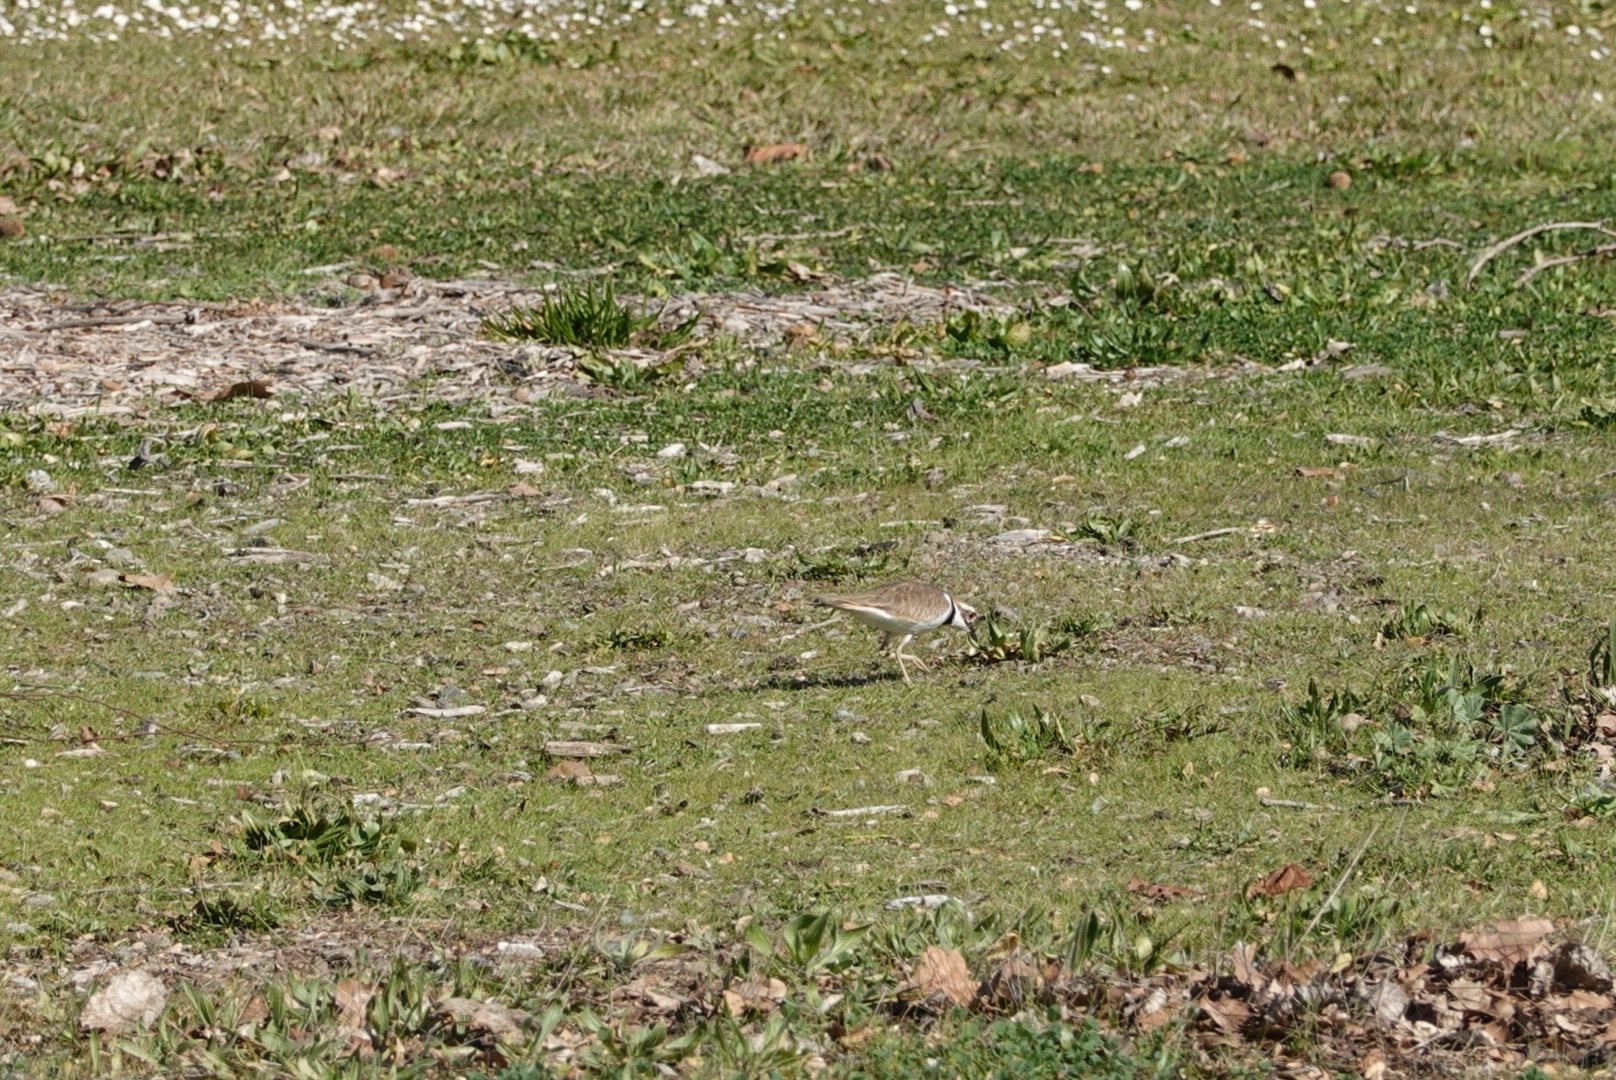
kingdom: Animalia
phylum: Chordata
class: Aves
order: Charadriiformes
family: Charadriidae
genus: Charadrius
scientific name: Charadrius vociferus
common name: Killdeer
